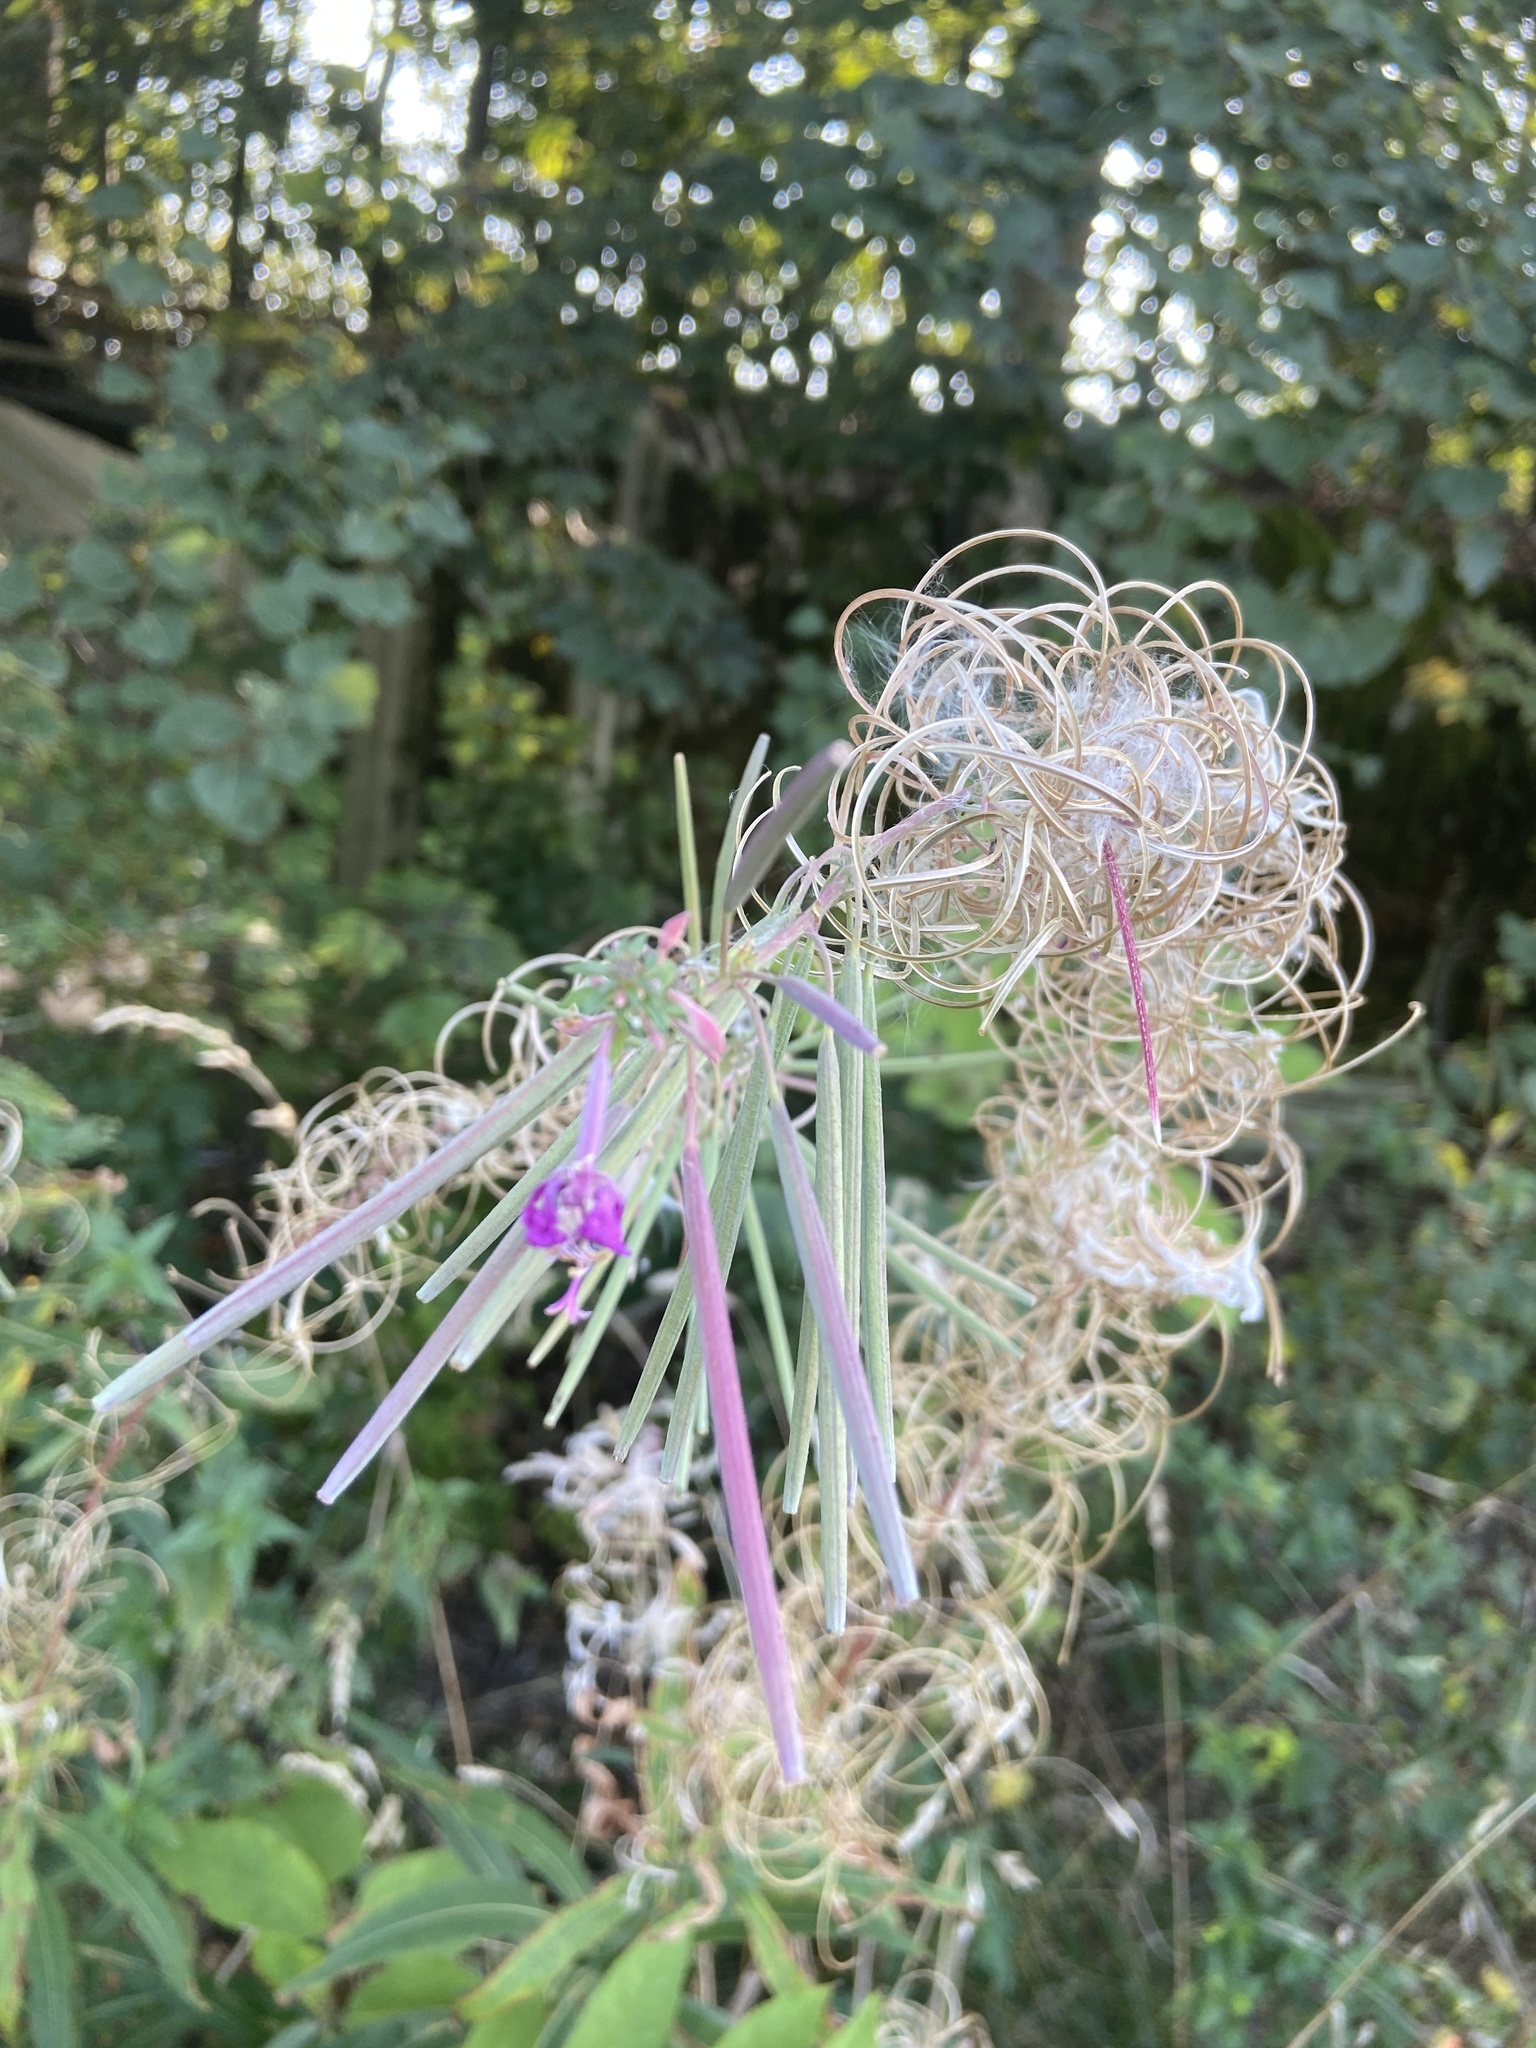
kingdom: Plantae
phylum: Tracheophyta
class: Magnoliopsida
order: Myrtales
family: Onagraceae
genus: Chamaenerion
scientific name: Chamaenerion angustifolium
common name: Fireweed
